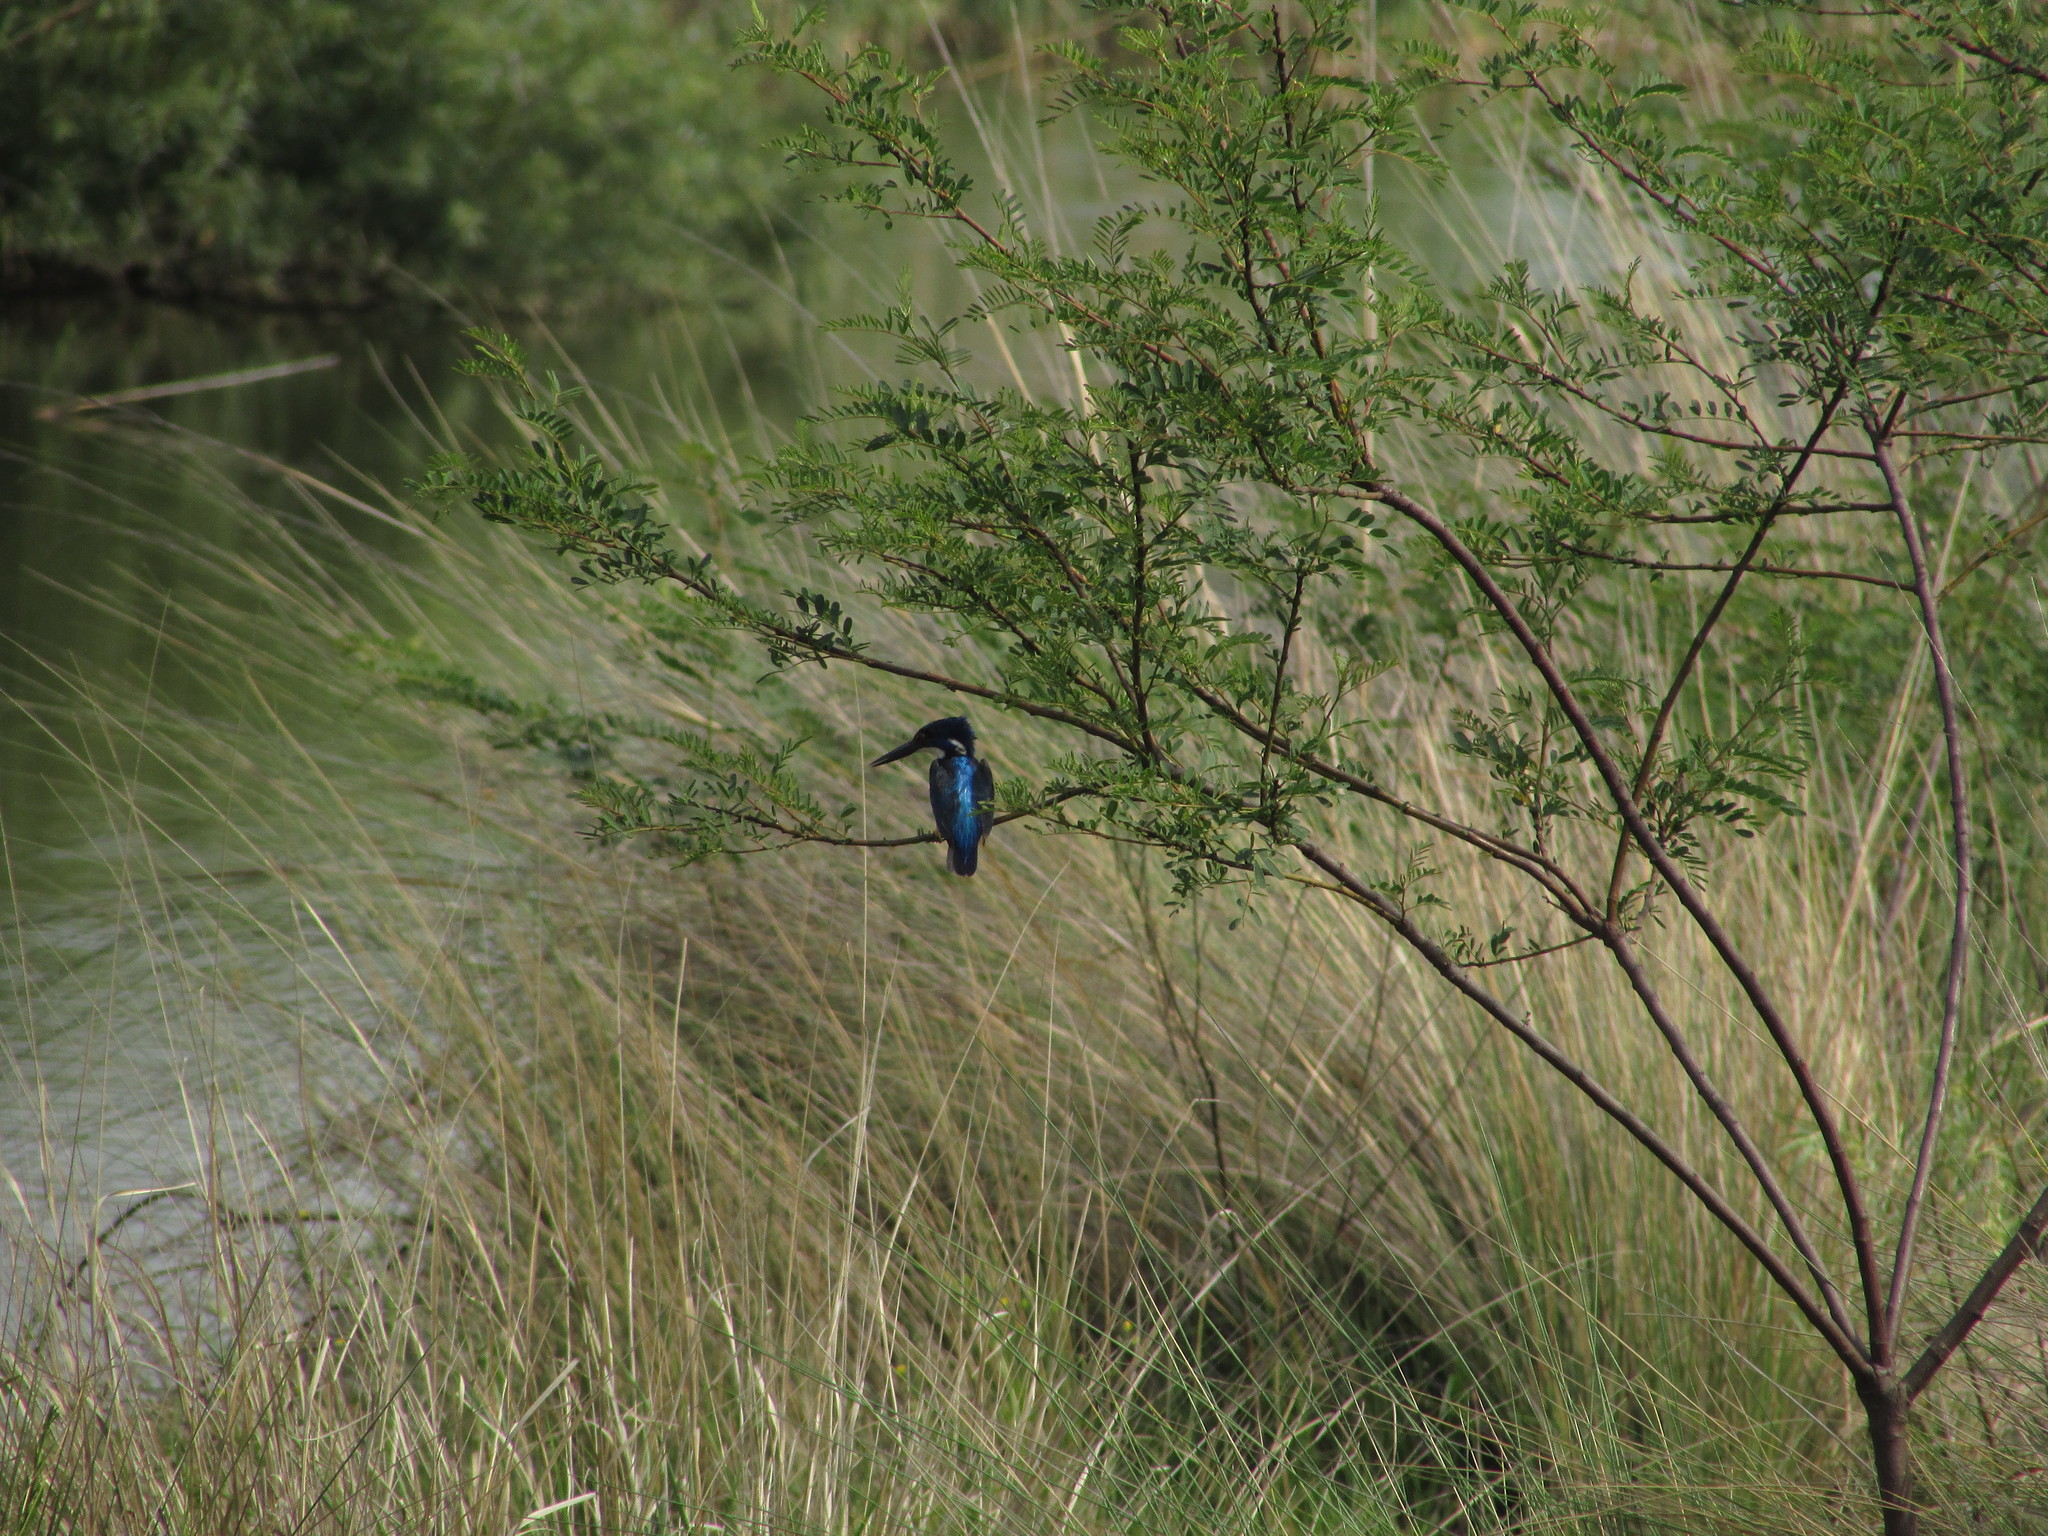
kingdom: Animalia
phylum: Chordata
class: Aves
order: Coraciiformes
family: Alcedinidae
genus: Alcedo
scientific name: Alcedo semitorquata
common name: Half-collared kingfisher
